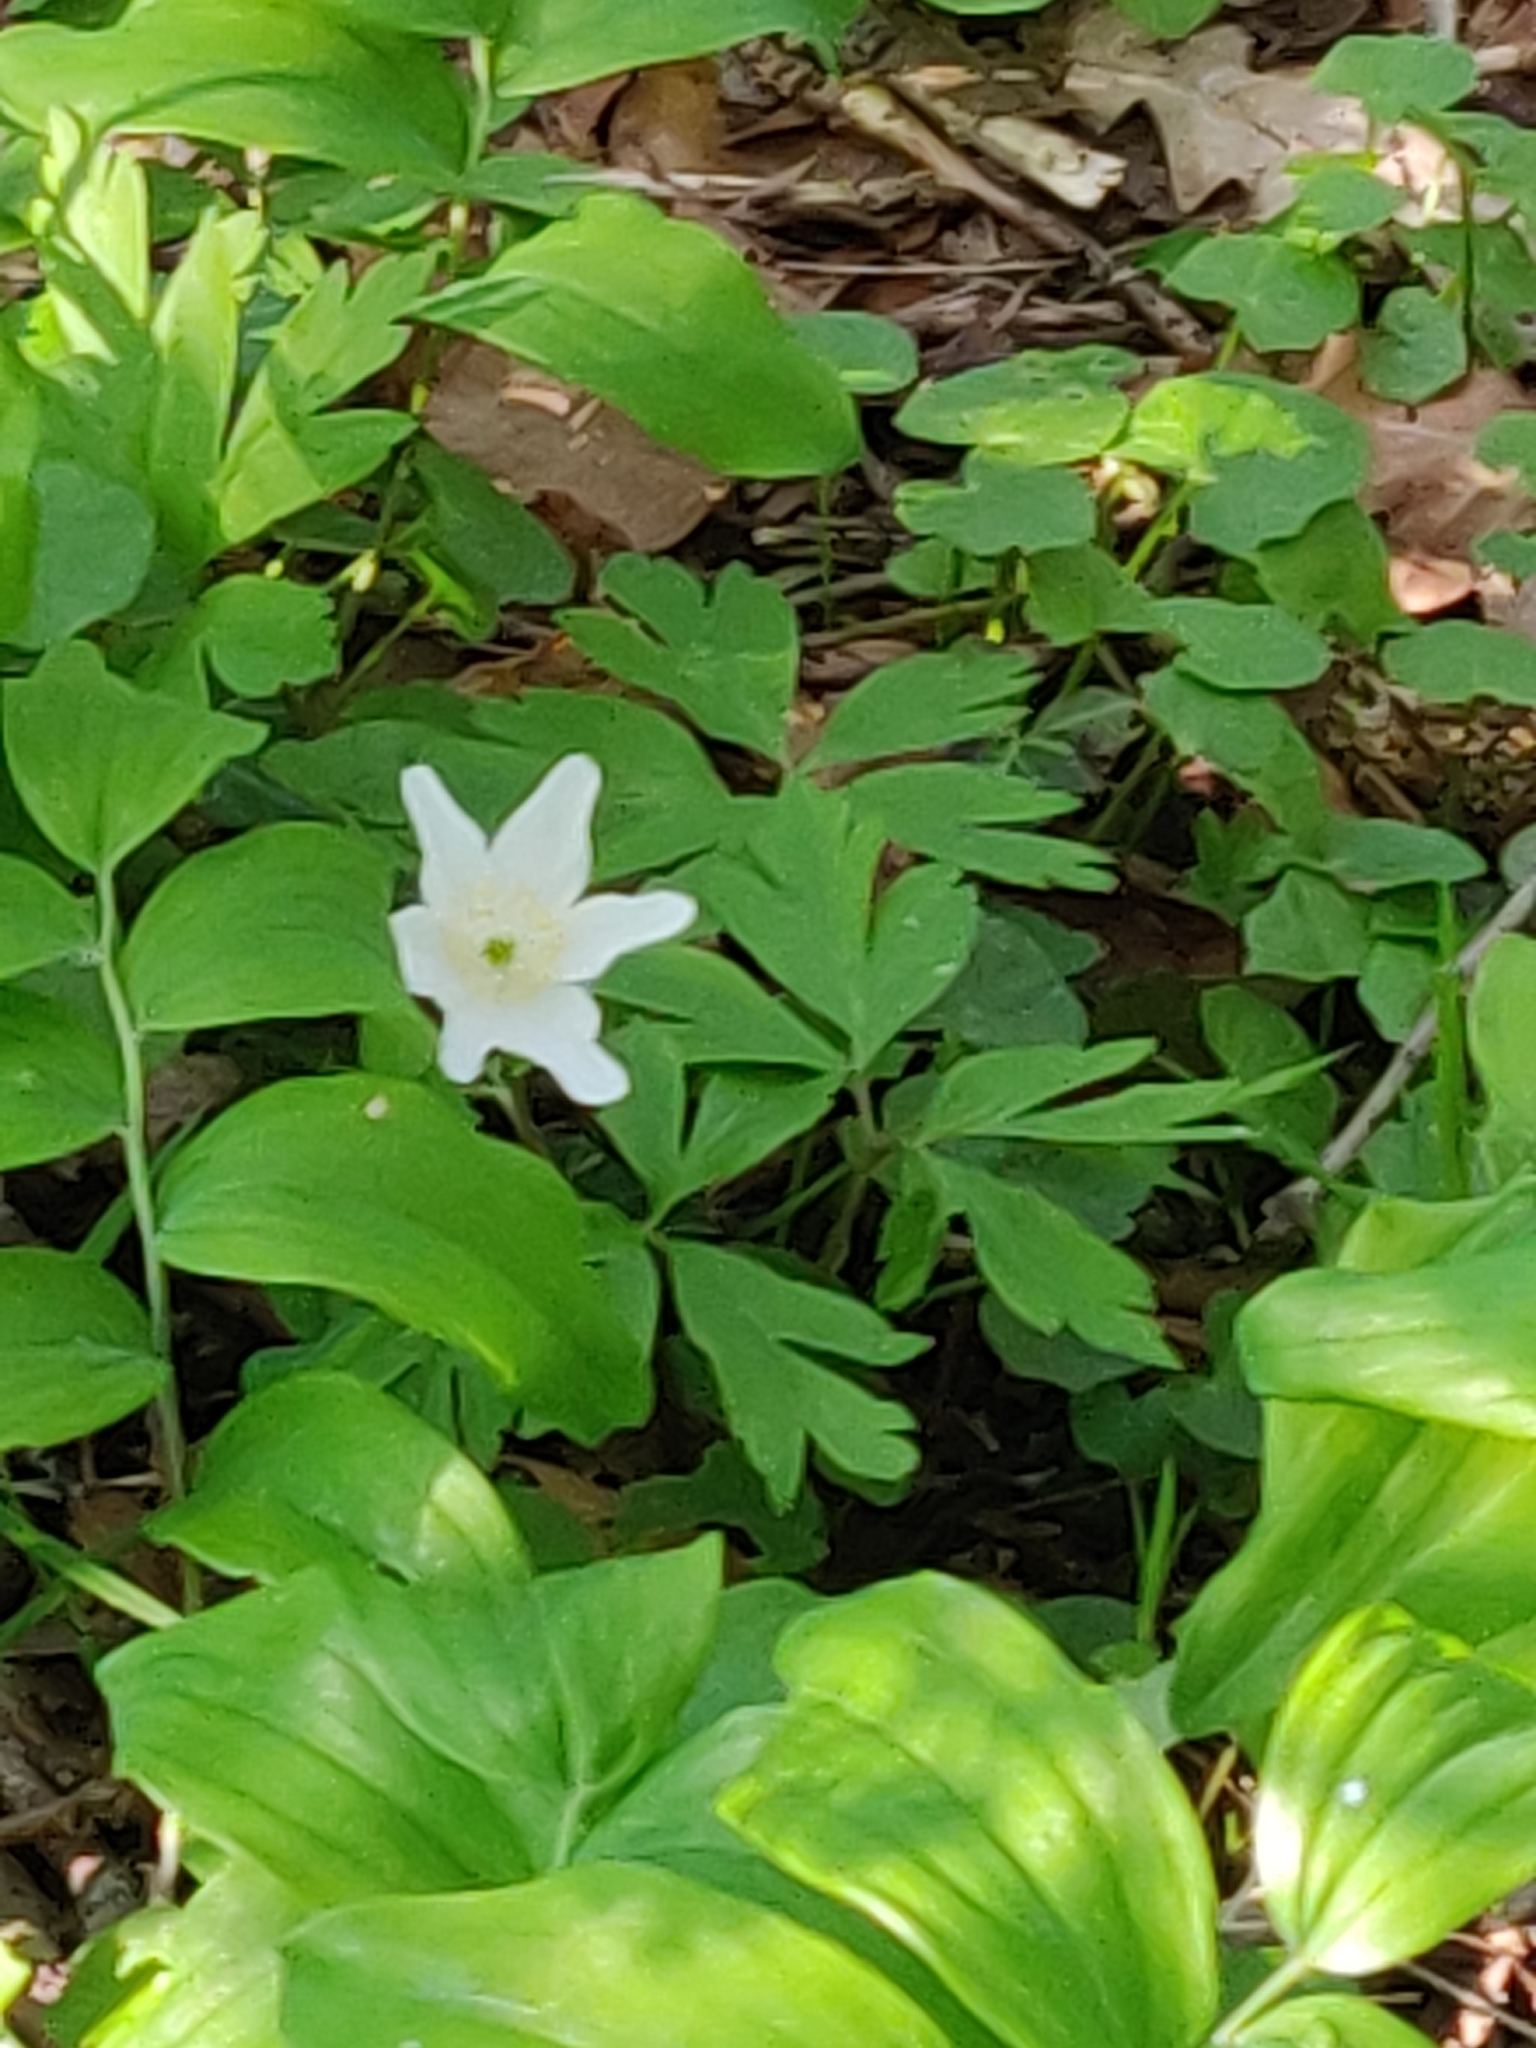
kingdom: Plantae
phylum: Tracheophyta
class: Magnoliopsida
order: Ranunculales
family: Ranunculaceae
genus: Anemone
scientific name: Anemone nemorosa
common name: Wood anemone
